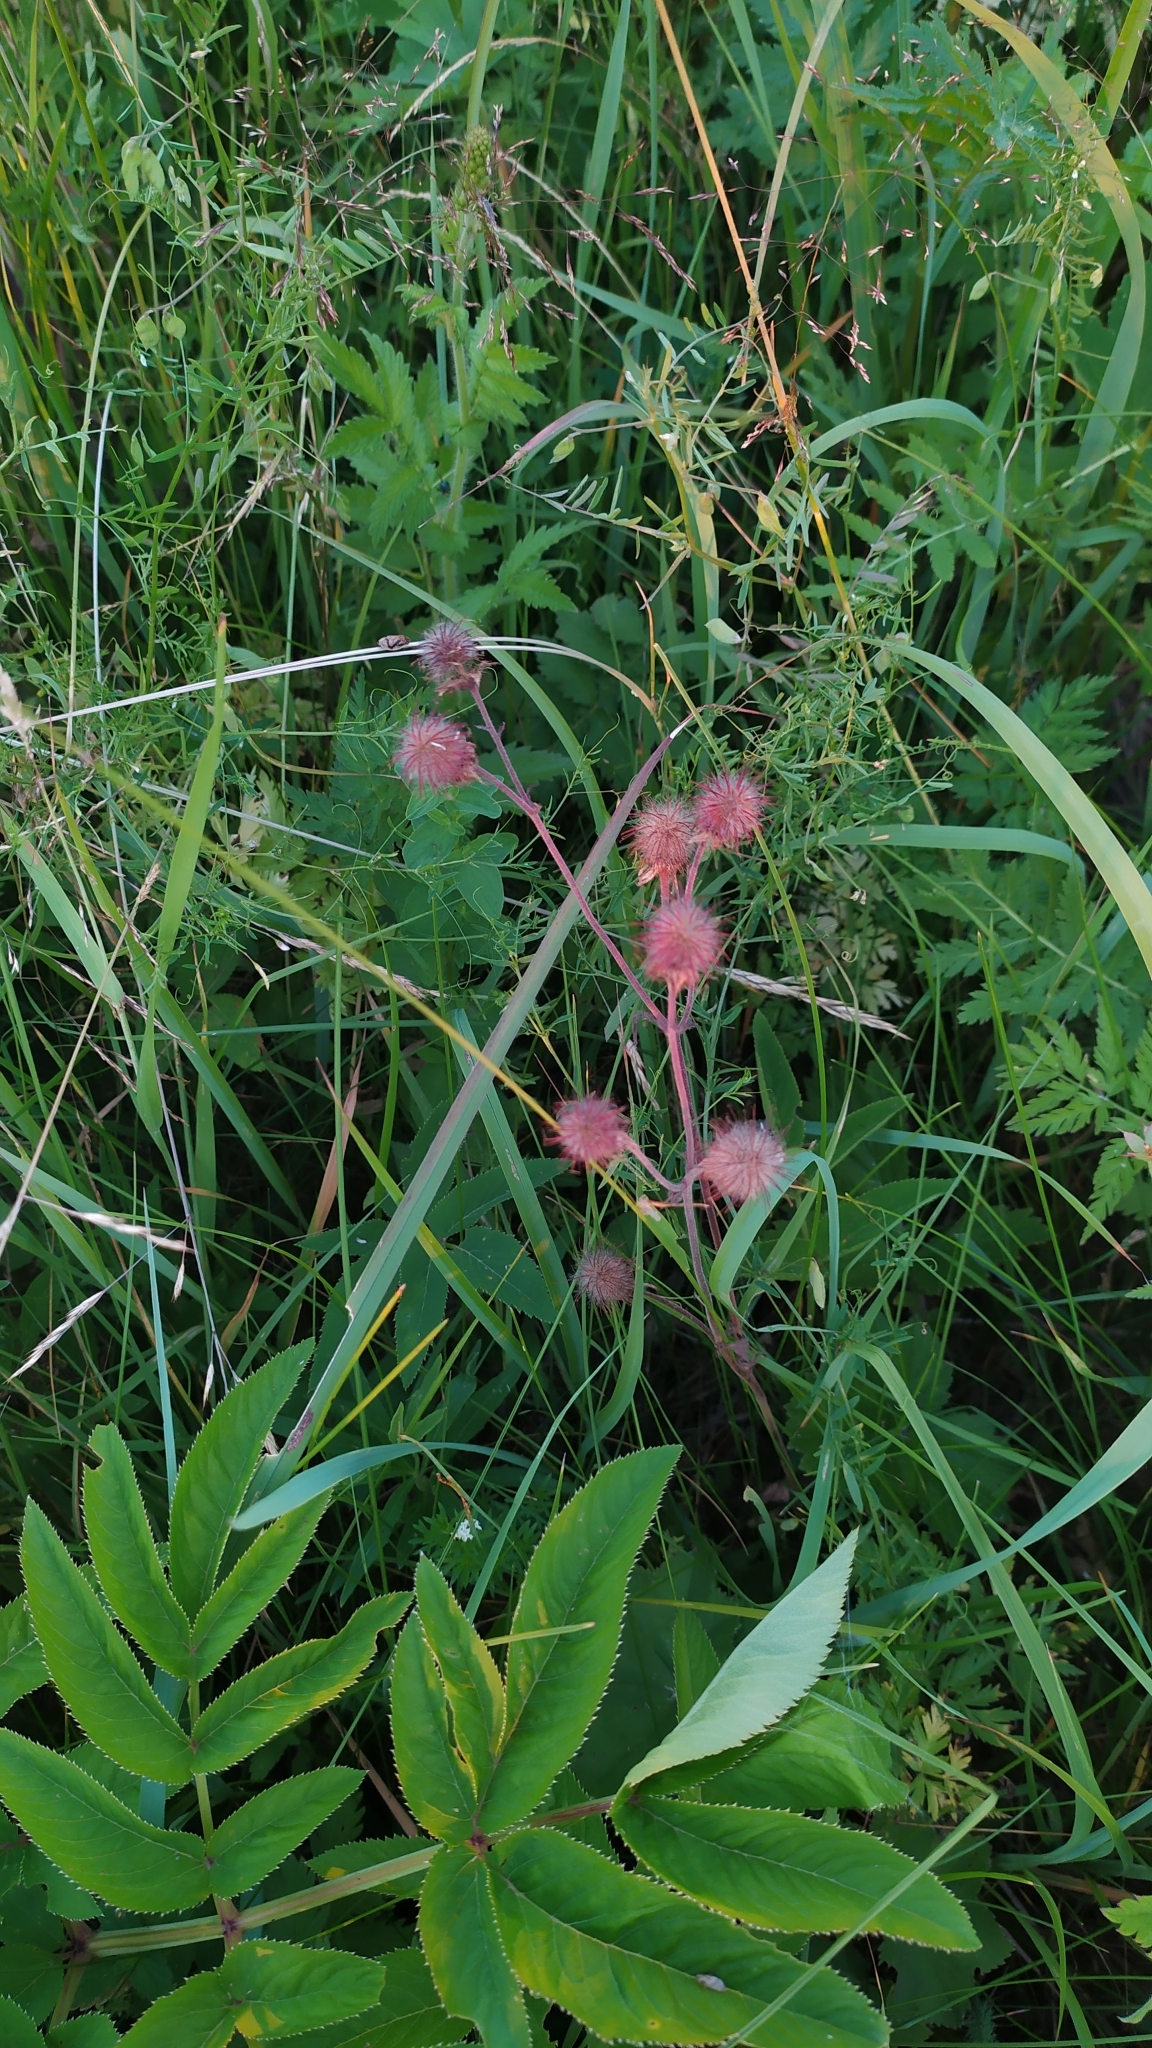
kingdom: Plantae
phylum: Tracheophyta
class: Magnoliopsida
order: Rosales
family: Rosaceae
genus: Geum
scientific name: Geum rivale
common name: Water avens
